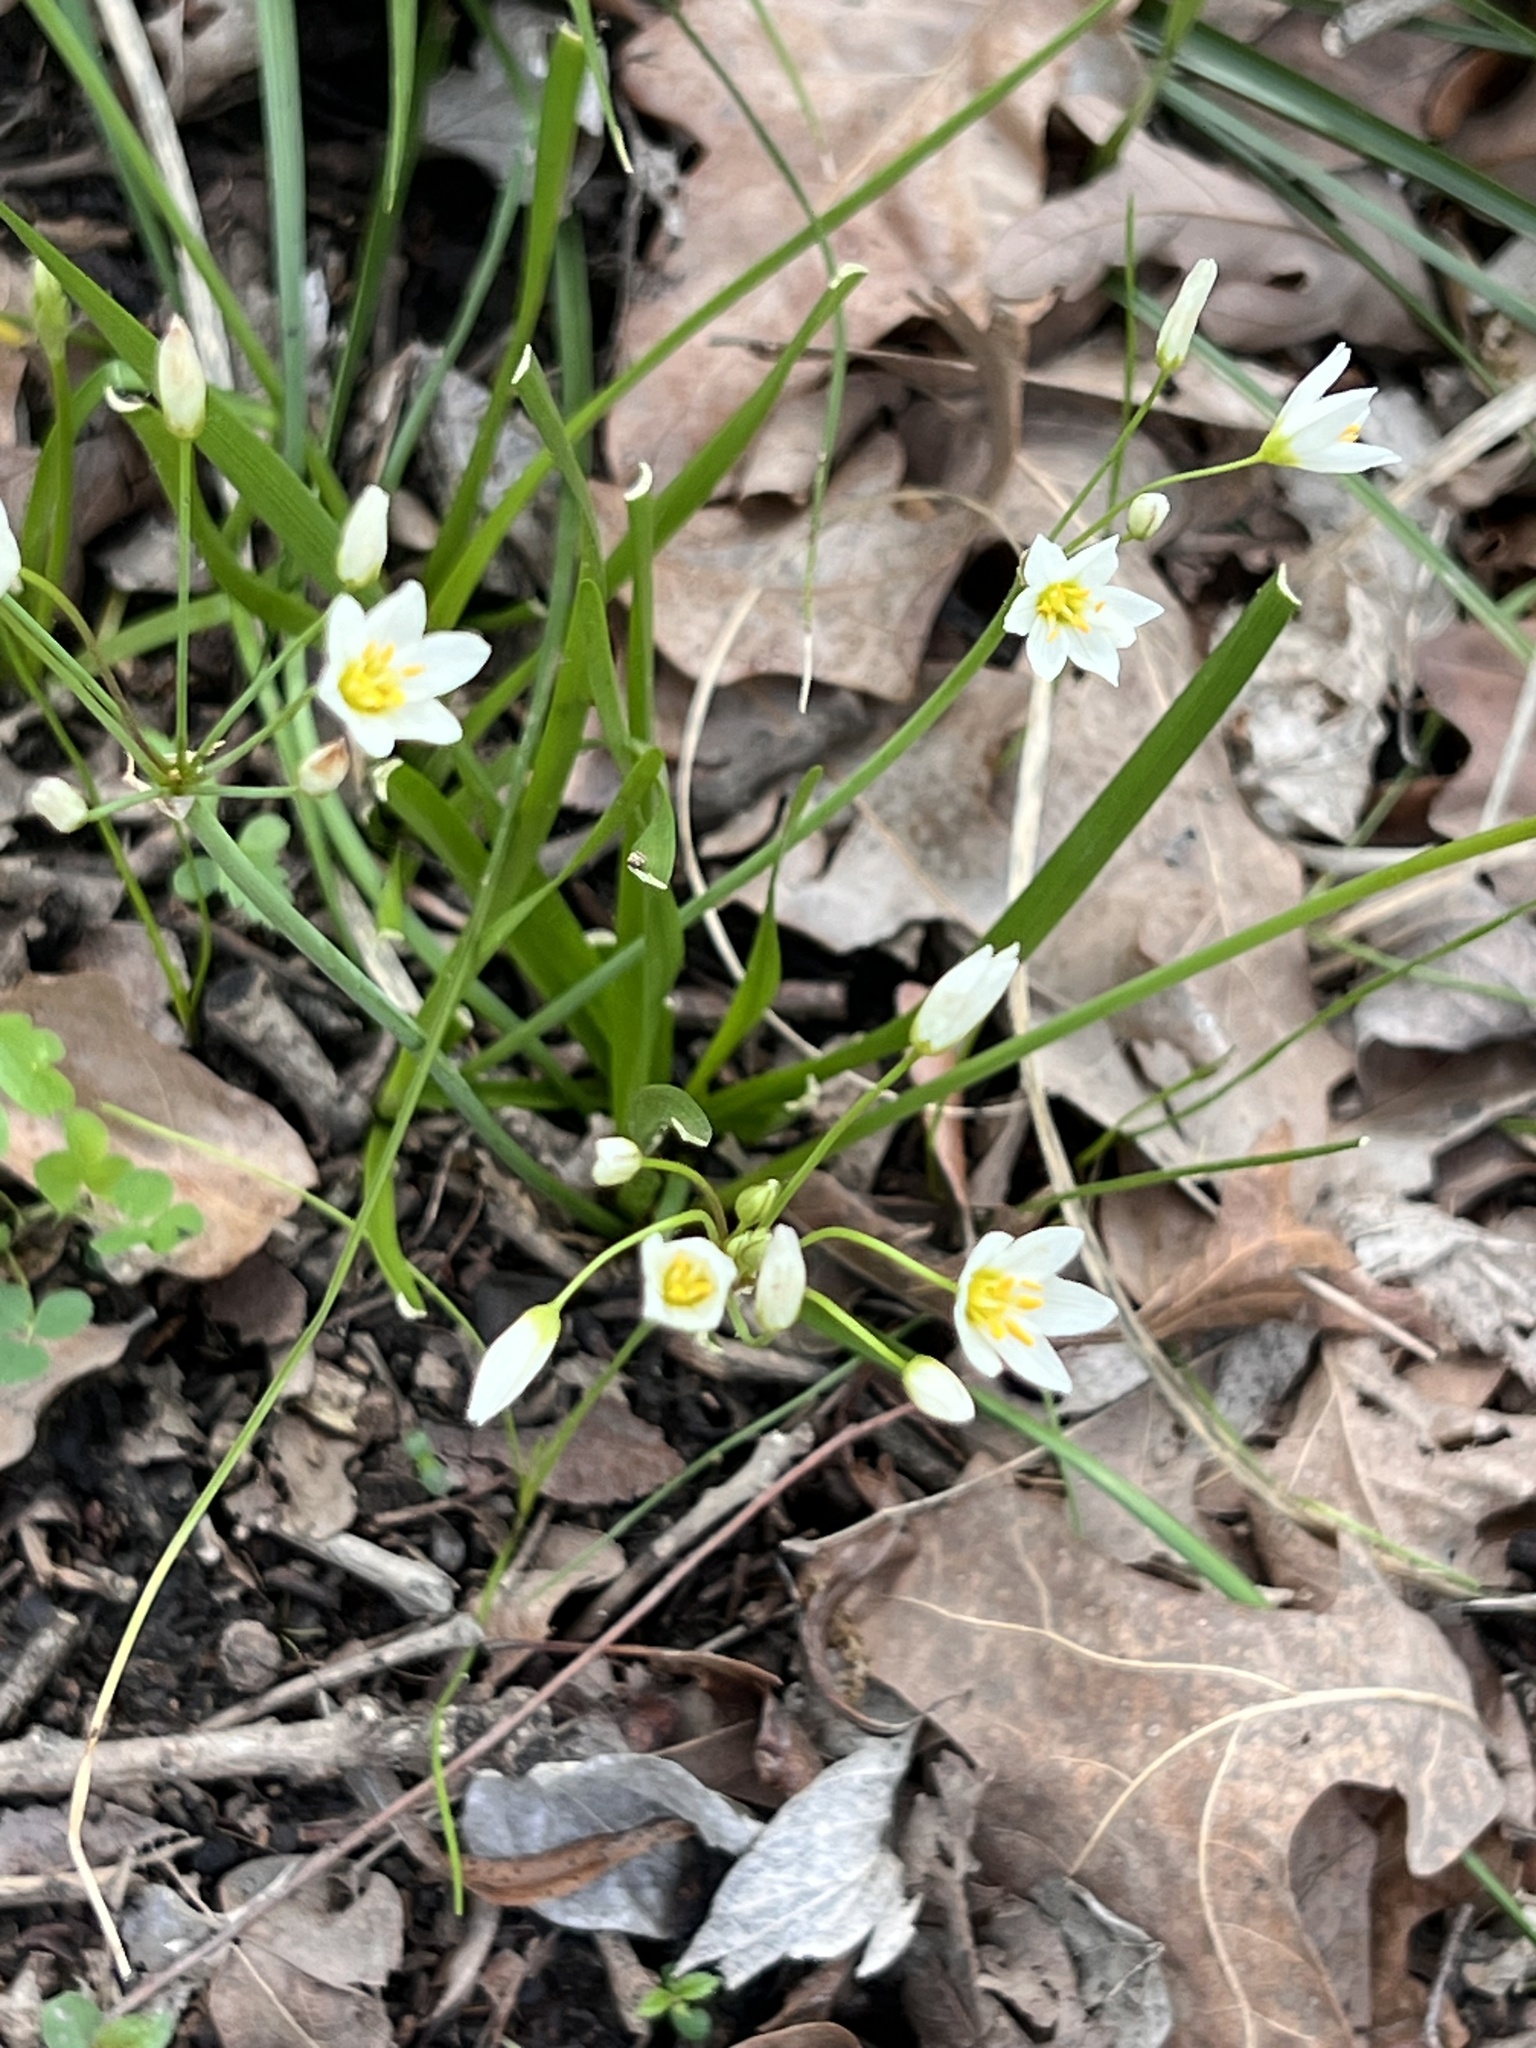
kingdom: Plantae
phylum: Tracheophyta
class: Liliopsida
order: Asparagales
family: Amaryllidaceae
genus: Nothoscordum
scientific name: Nothoscordum bivalve
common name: Crow-poison
